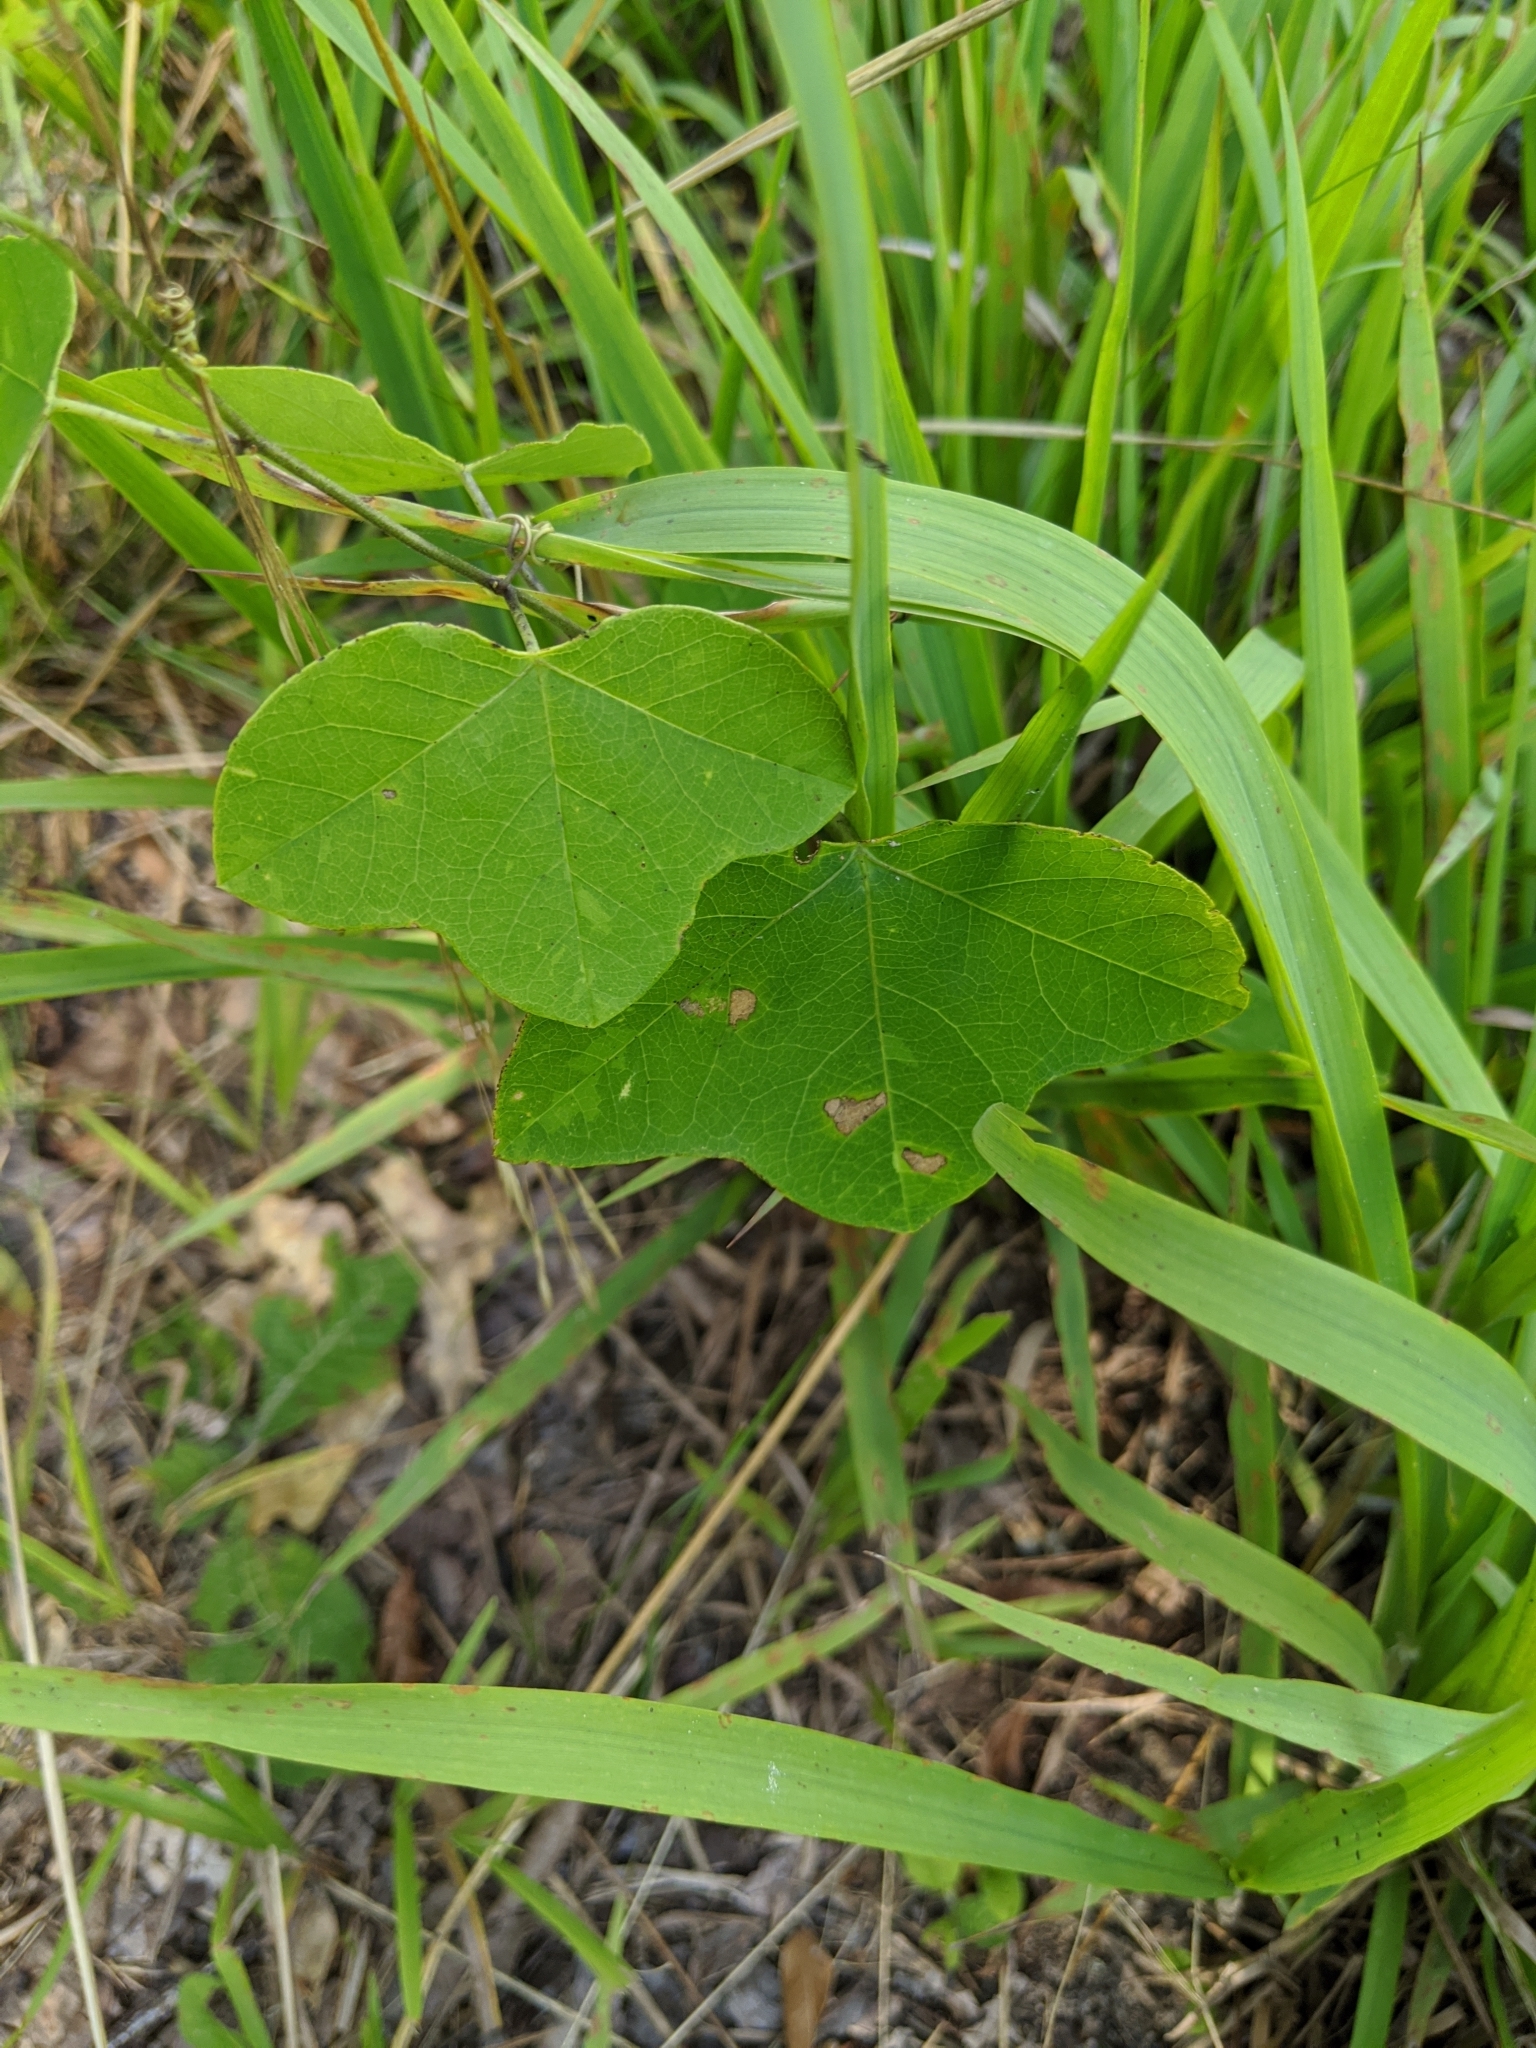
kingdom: Plantae
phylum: Tracheophyta
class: Magnoliopsida
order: Malpighiales
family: Passifloraceae
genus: Passiflora
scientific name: Passiflora lutea
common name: Yellow passionflower
